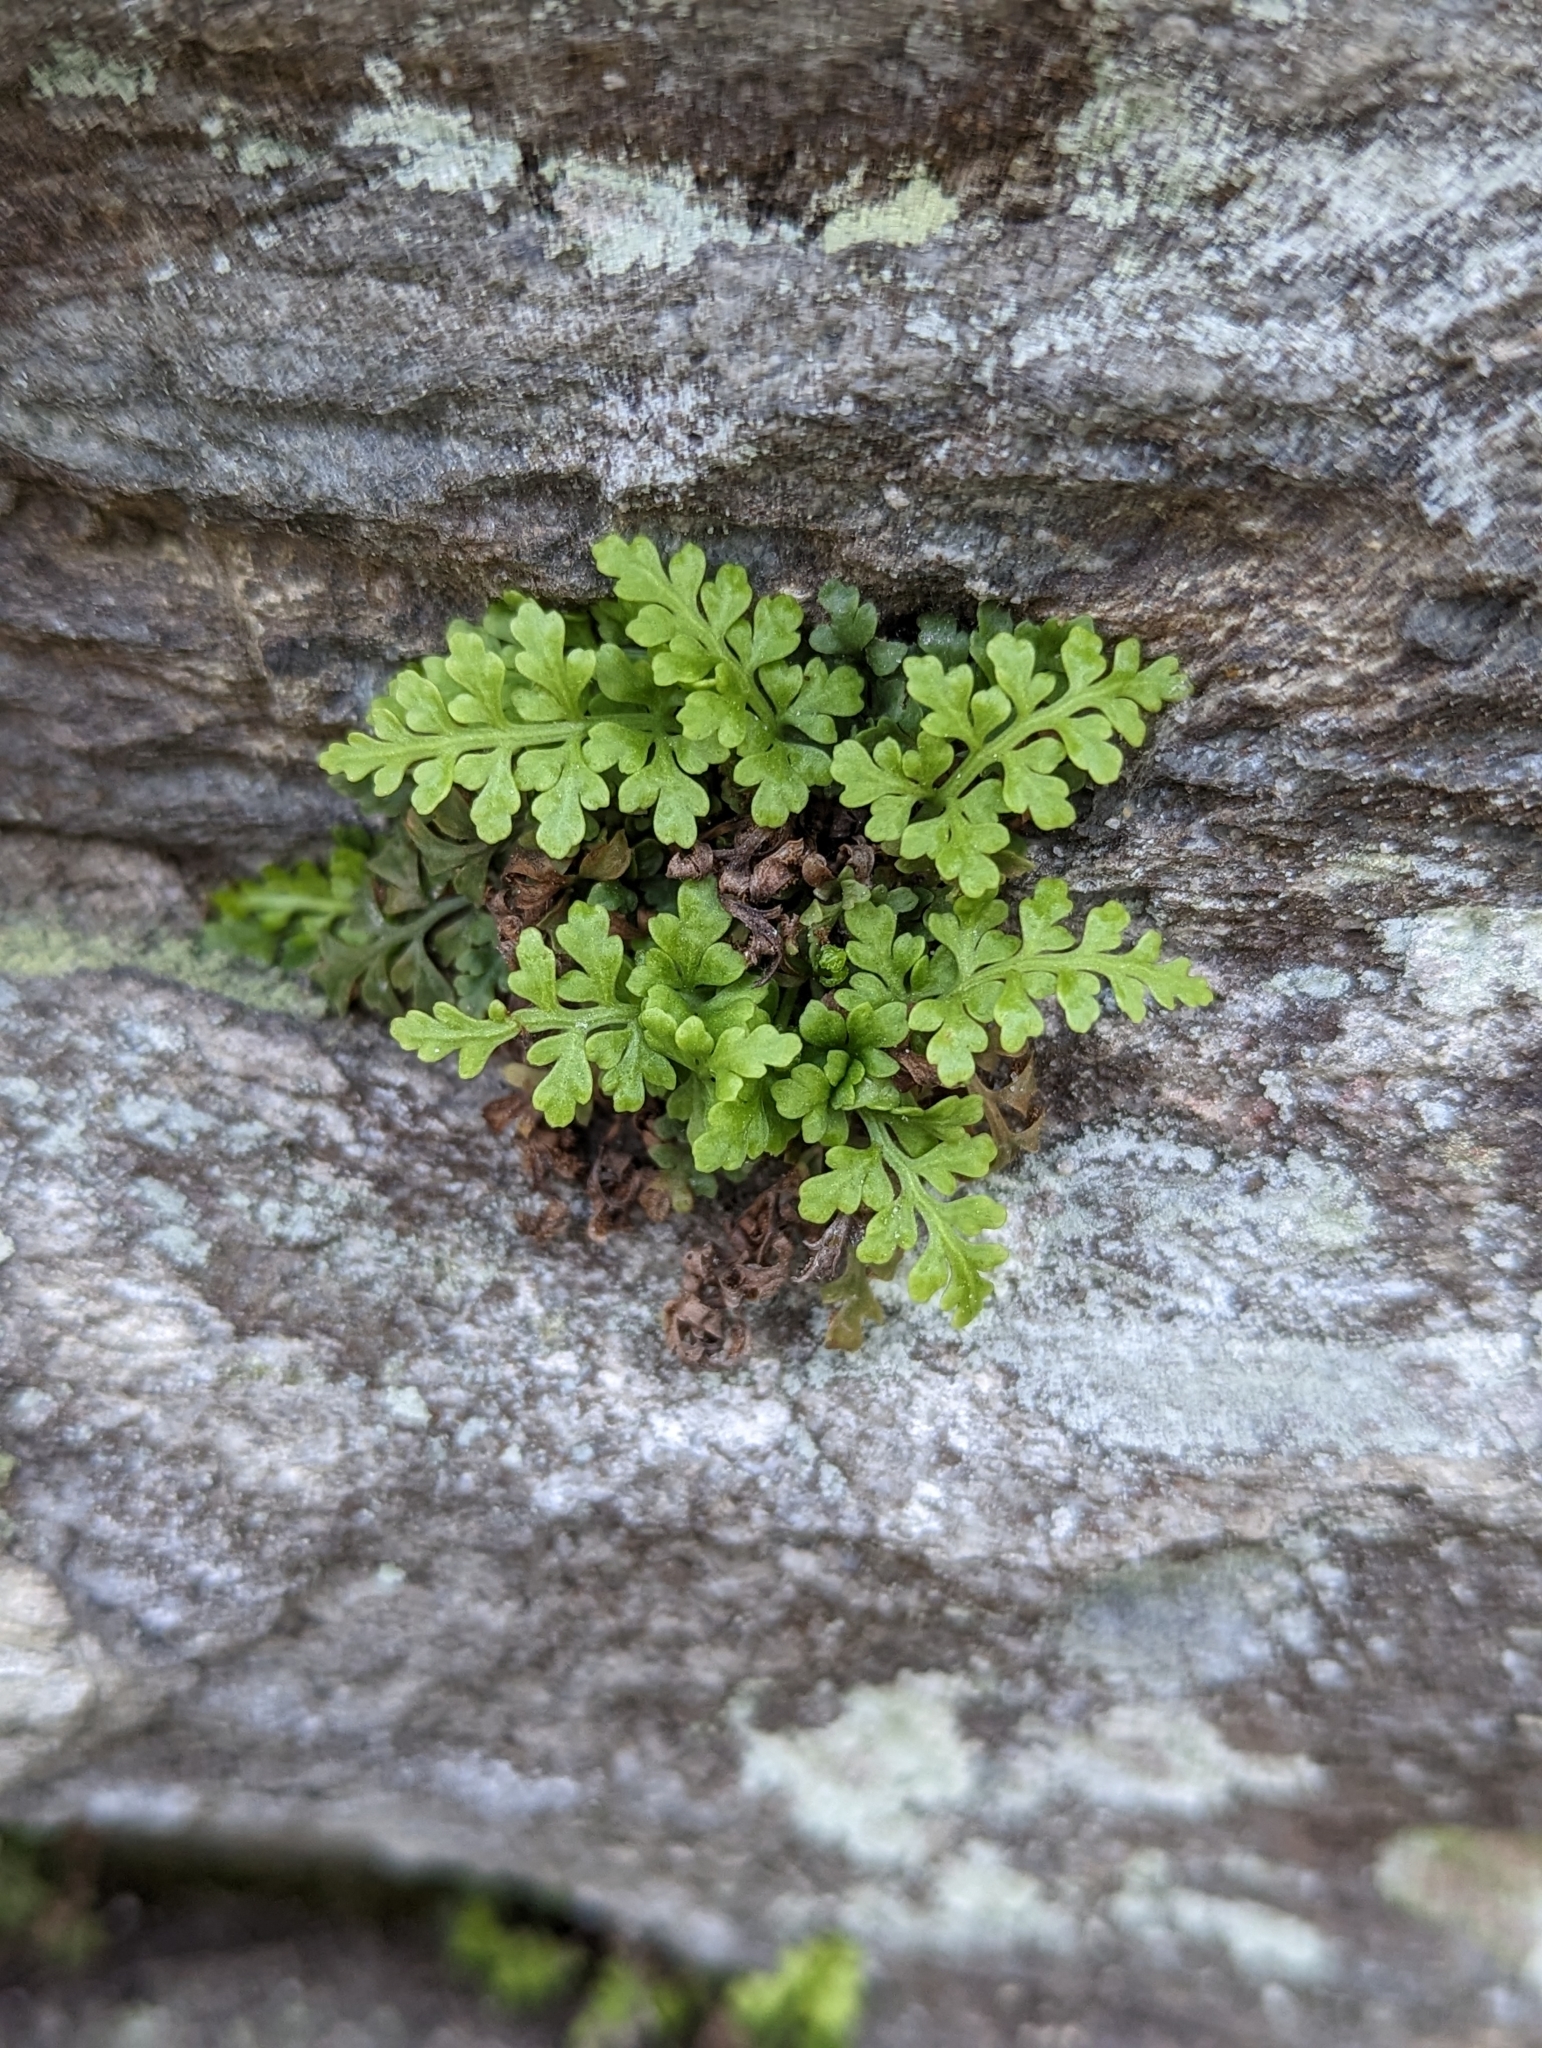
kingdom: Plantae
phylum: Tracheophyta
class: Polypodiopsida
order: Polypodiales
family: Aspleniaceae
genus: Asplenium
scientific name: Asplenium montanum
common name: Mountain spleenwort
